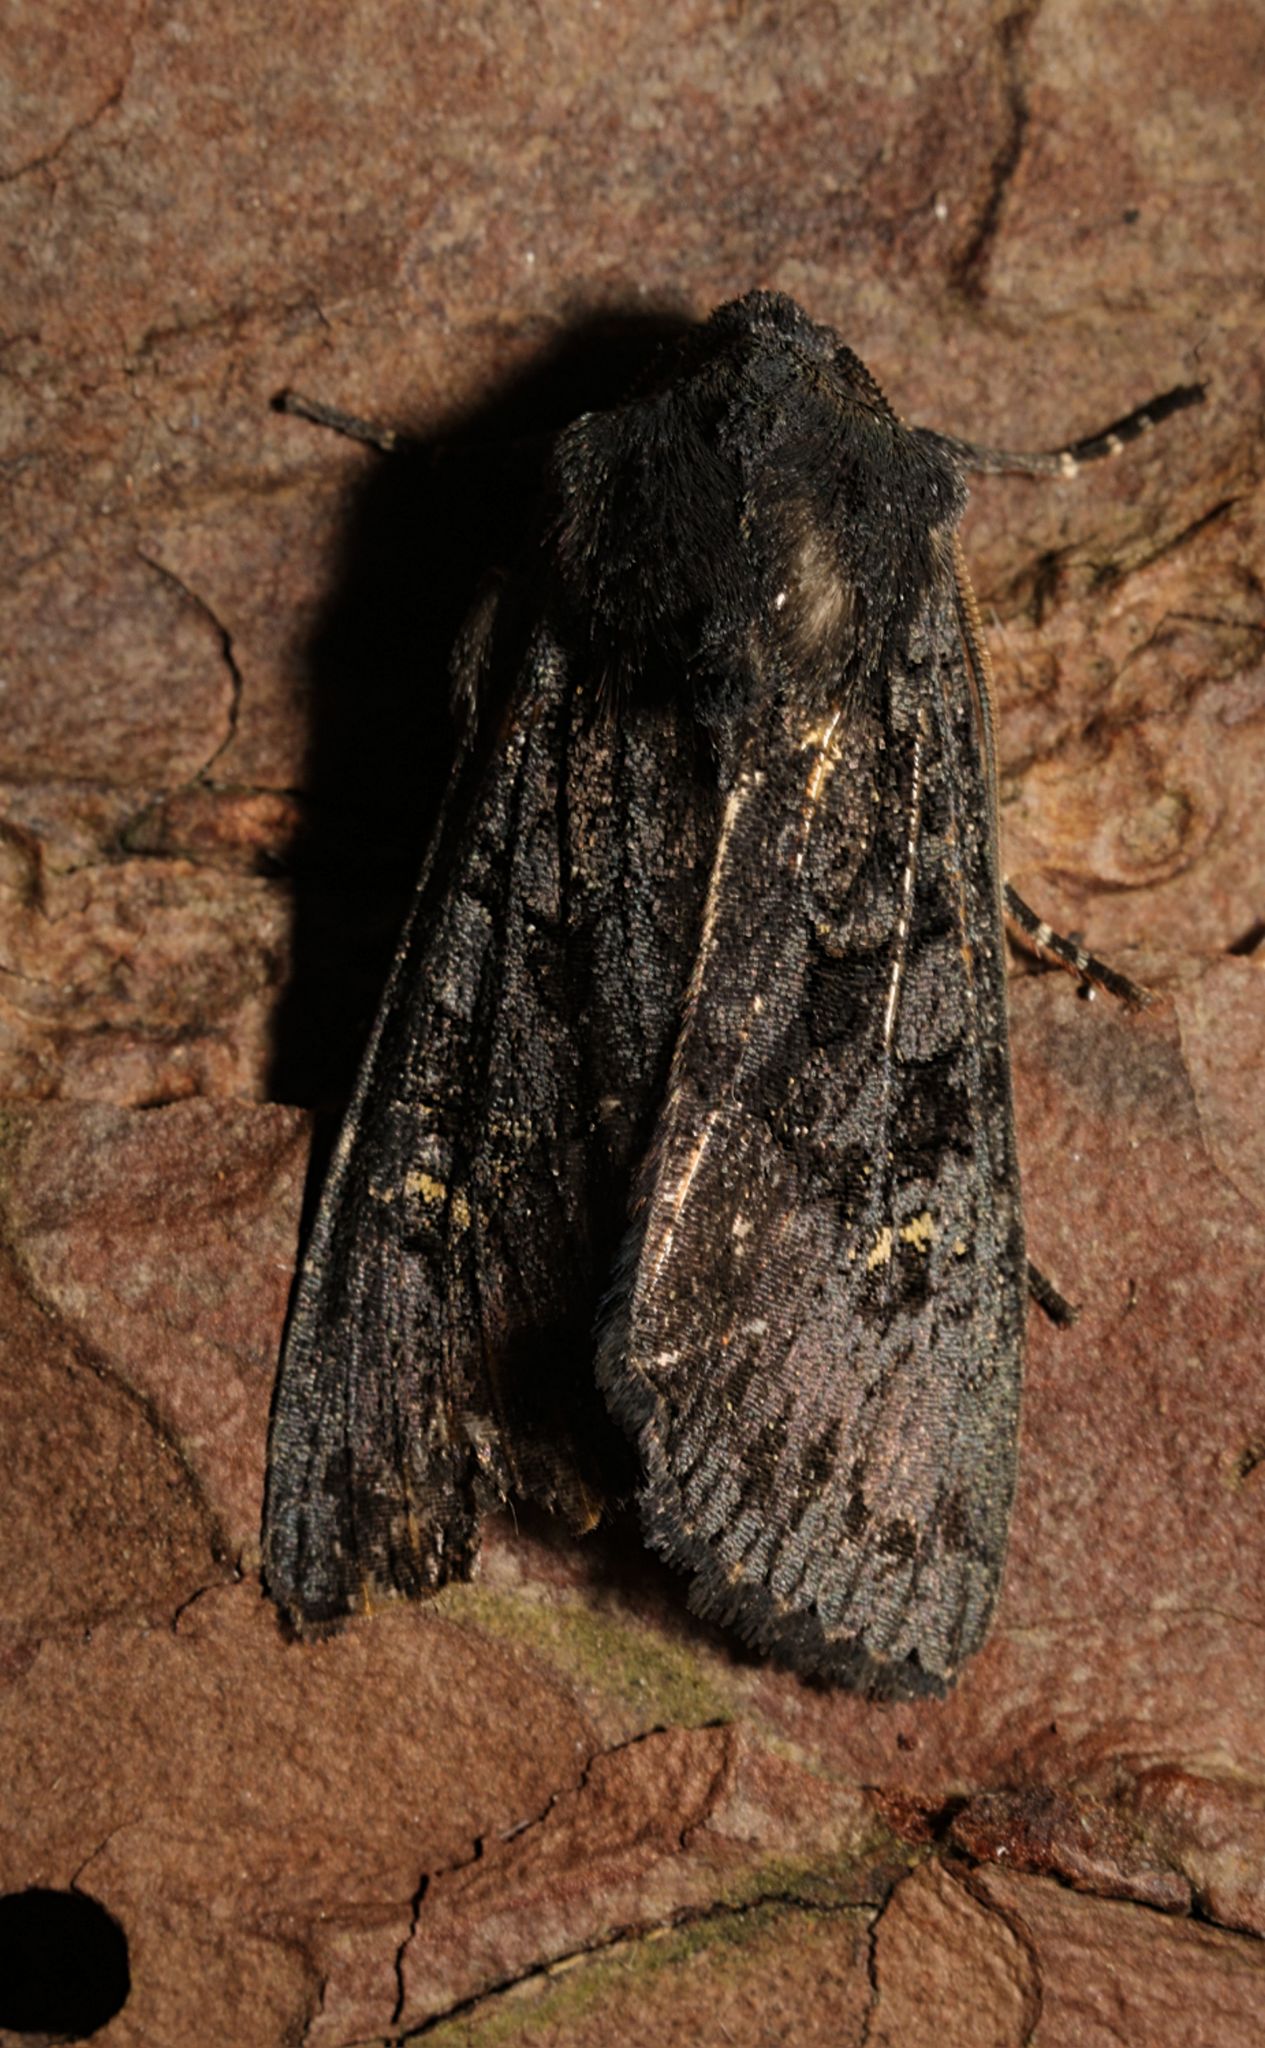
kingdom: Animalia
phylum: Arthropoda
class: Insecta
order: Lepidoptera
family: Noctuidae
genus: Aporophyla
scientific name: Aporophyla nigra
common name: Black rustic
